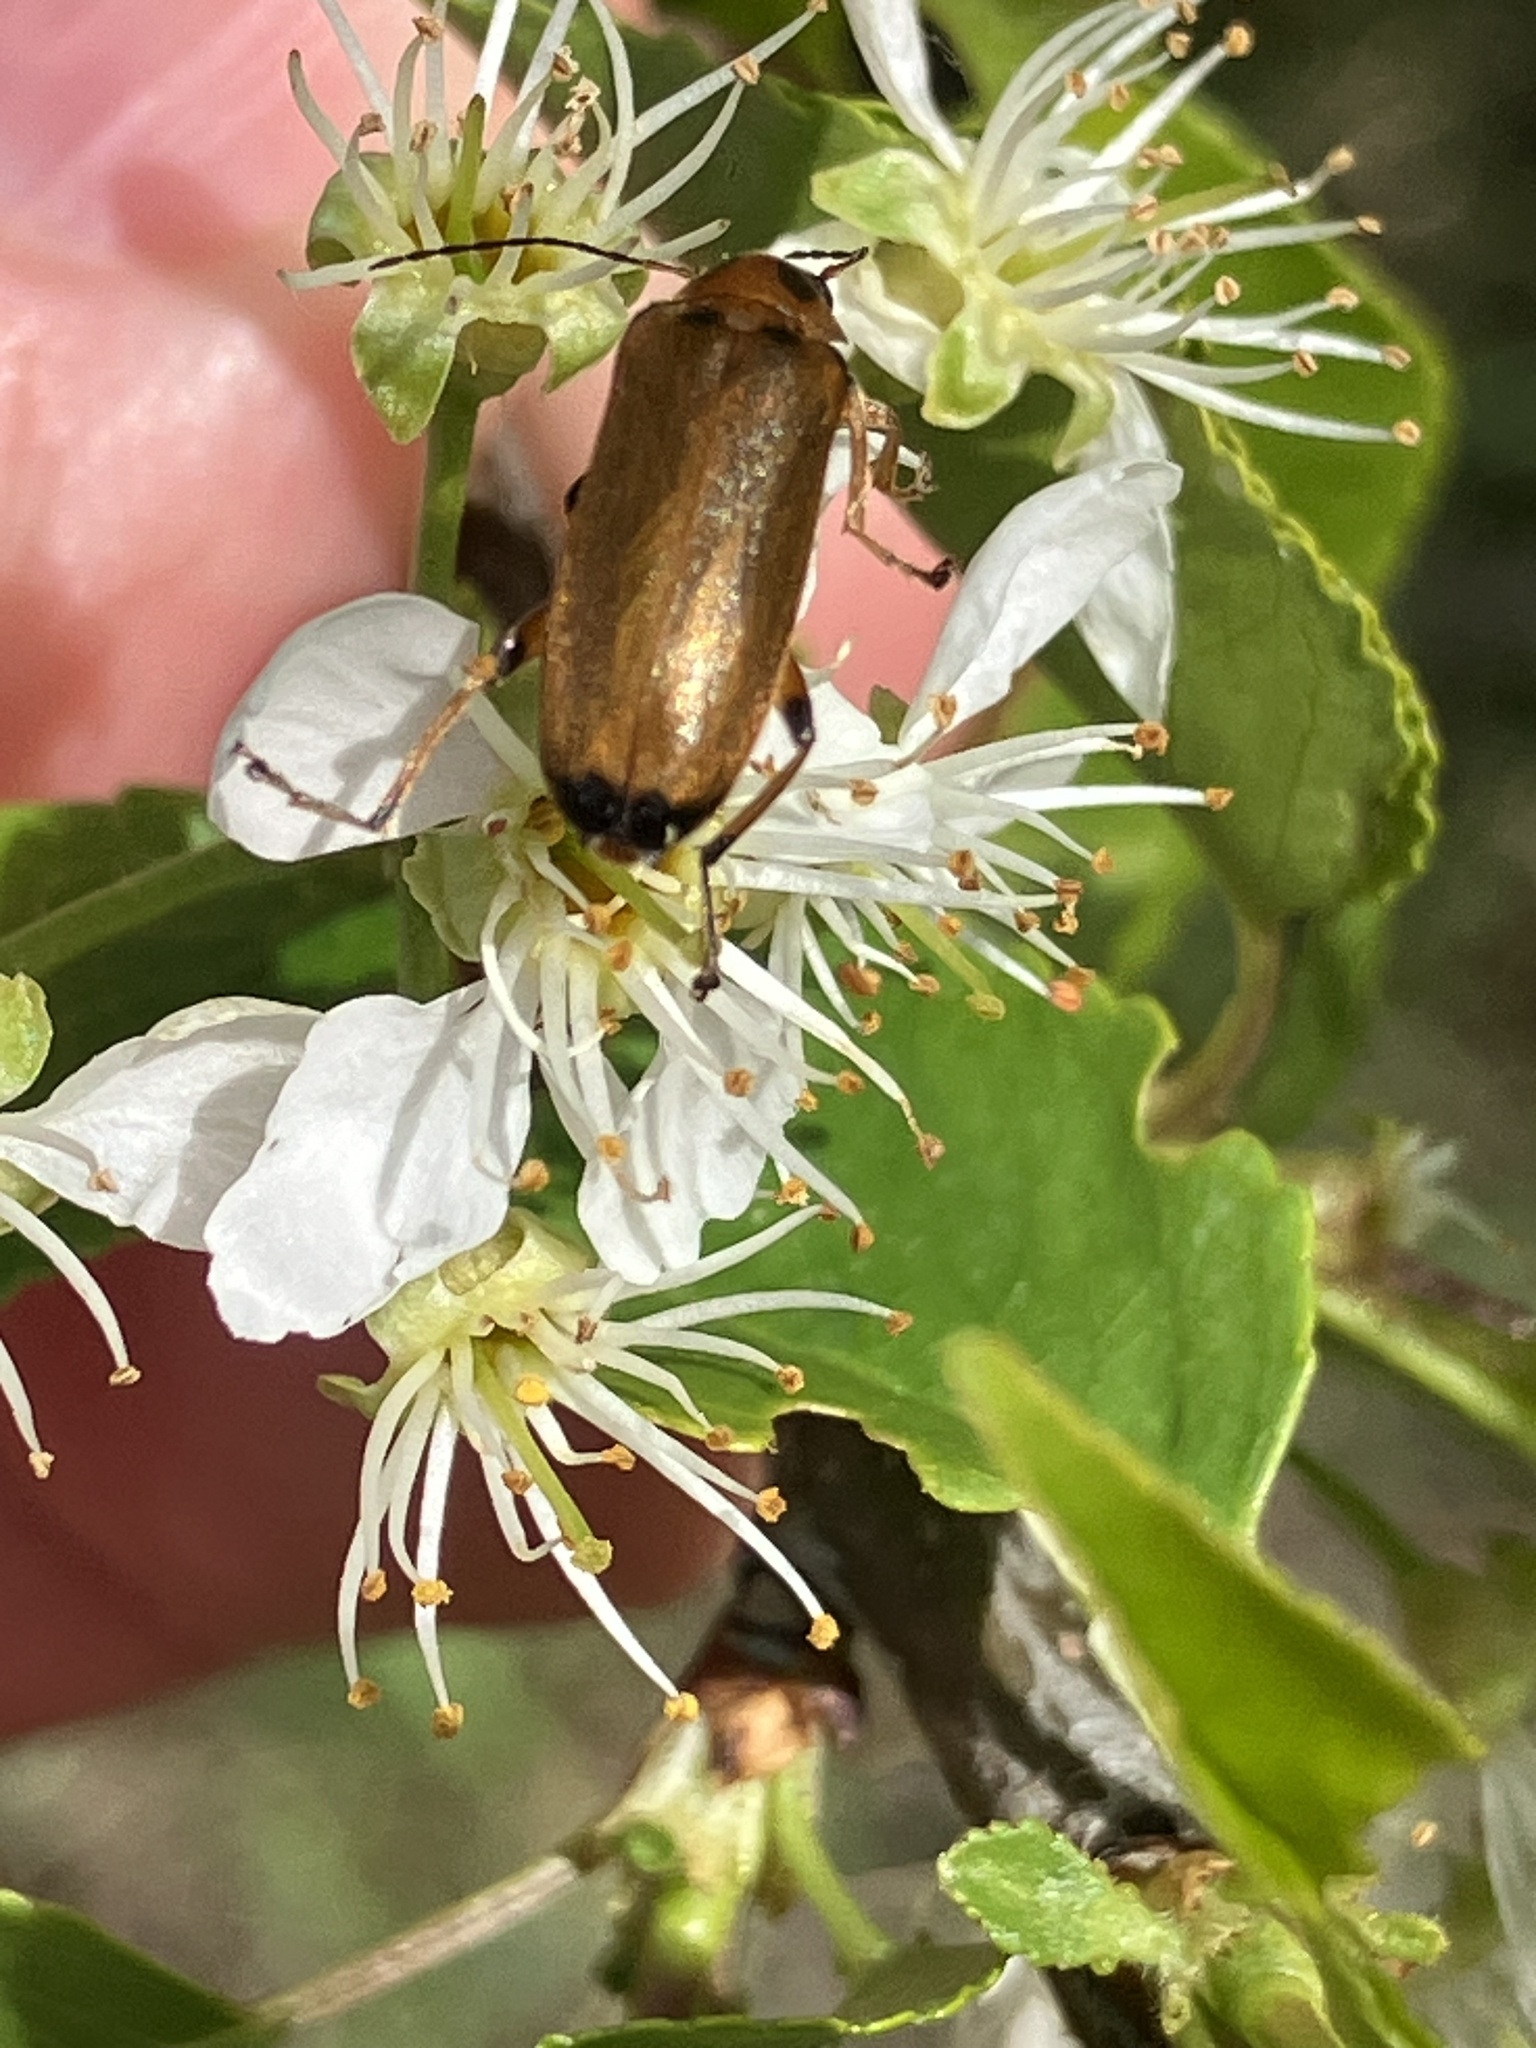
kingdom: Animalia
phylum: Arthropoda
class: Insecta
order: Coleoptera
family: Melandryidae
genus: Osphya
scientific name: Osphya bipunctata
